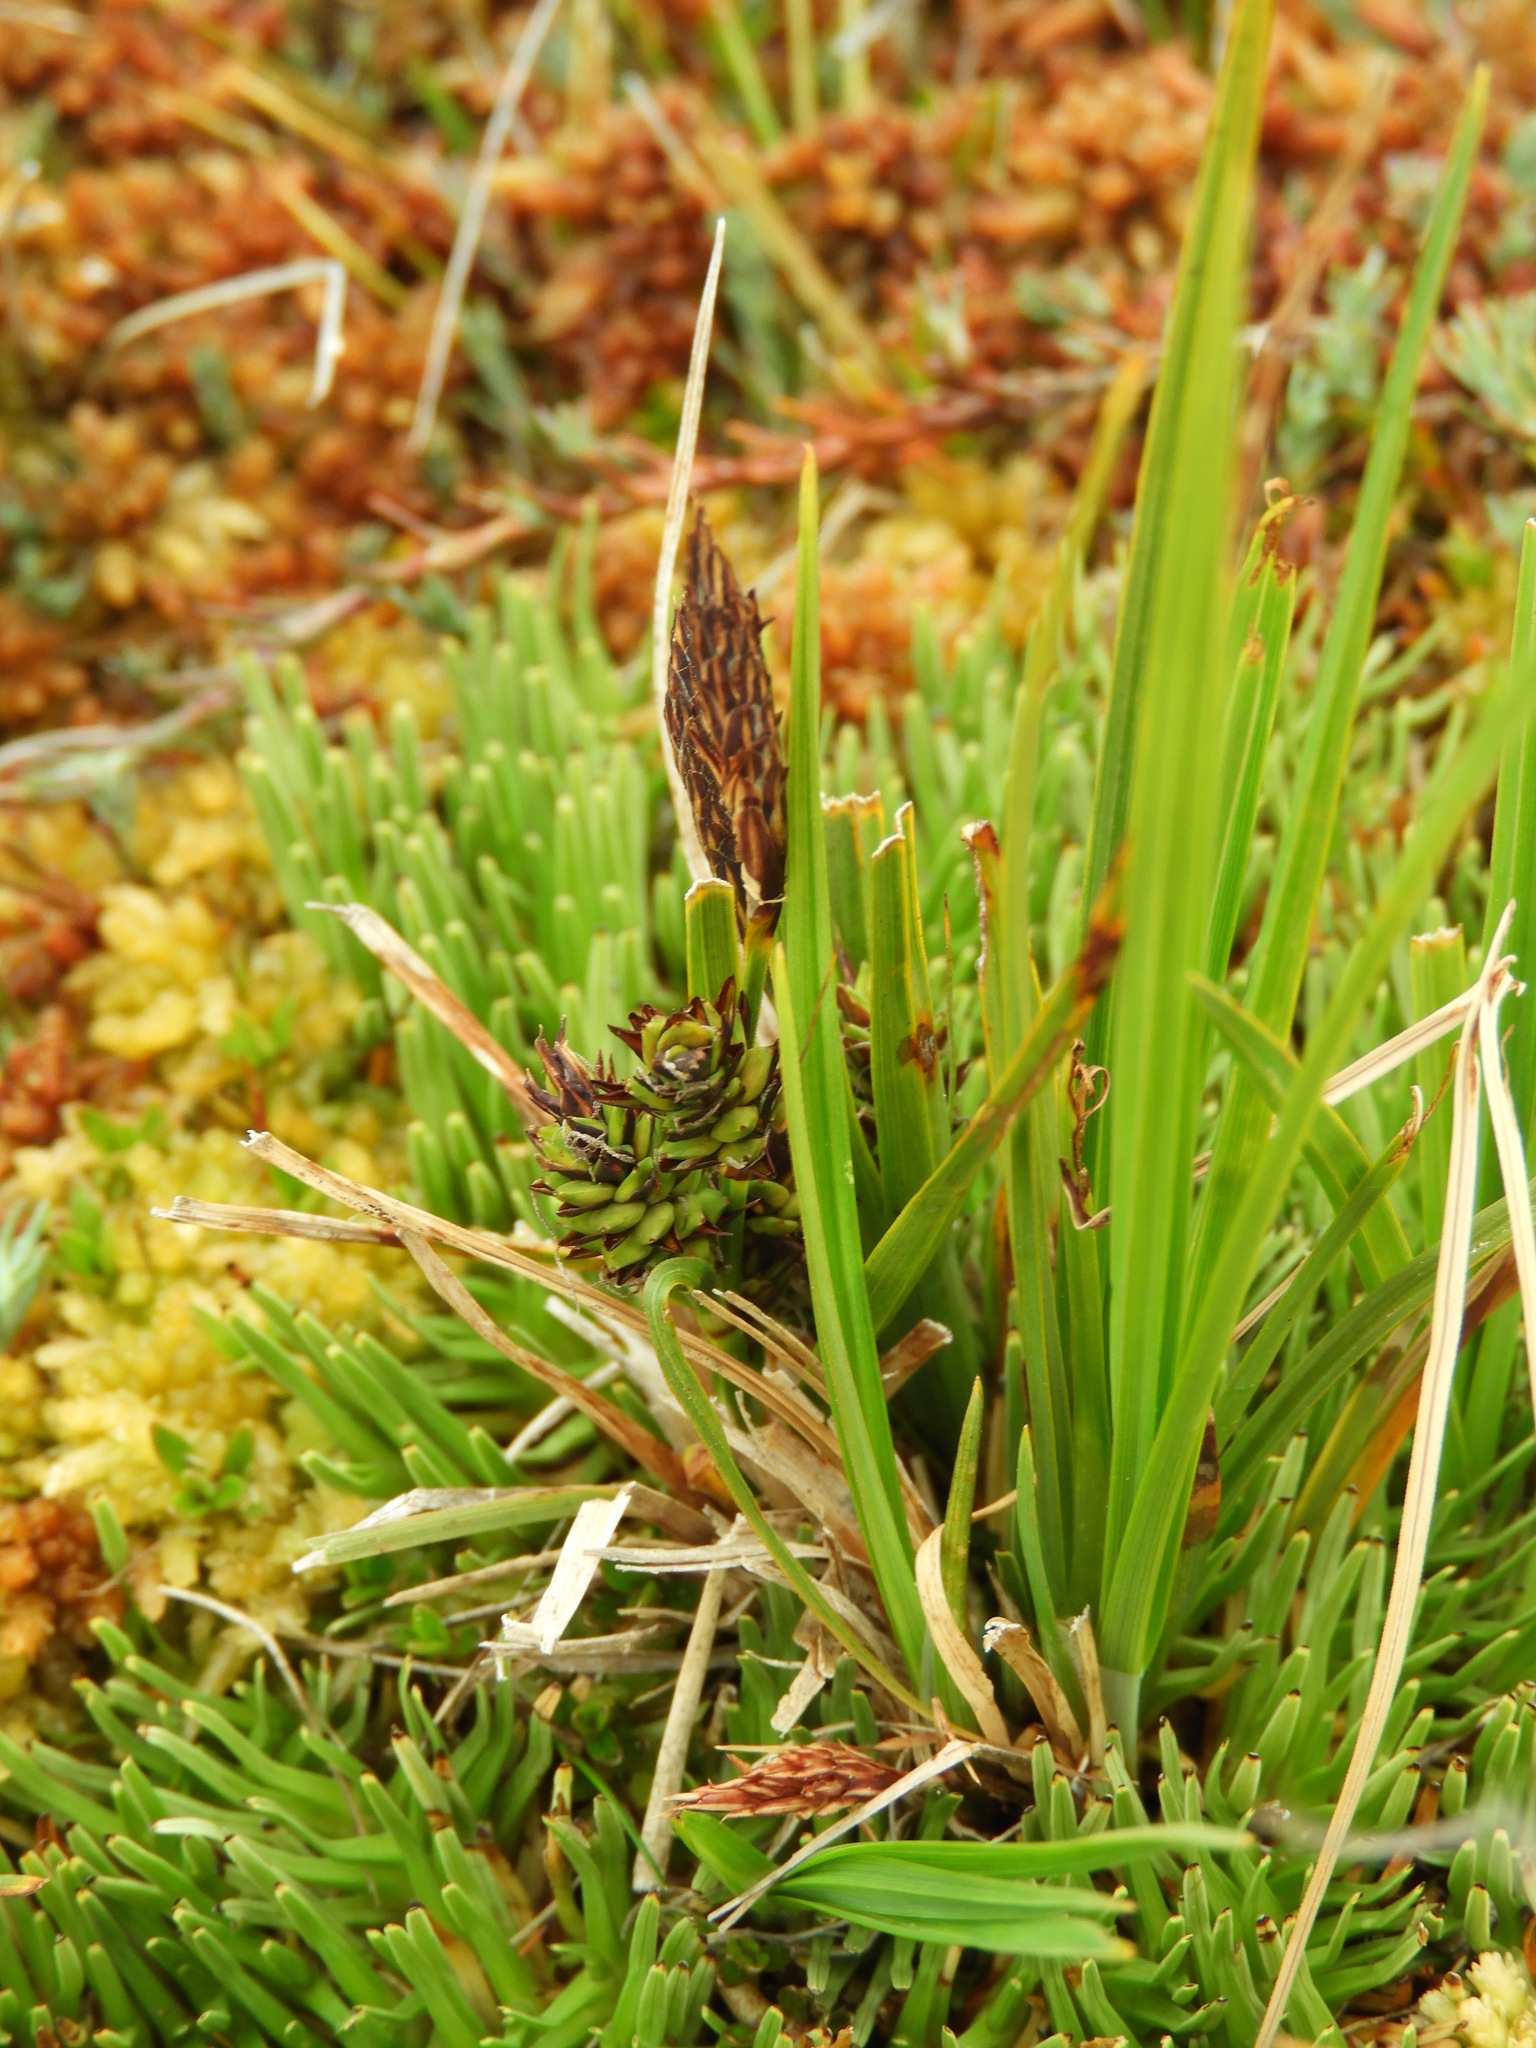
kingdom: Plantae
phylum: Tracheophyta
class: Liliopsida
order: Poales
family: Cyperaceae
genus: Carex
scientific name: Carex gaudichaudiana
